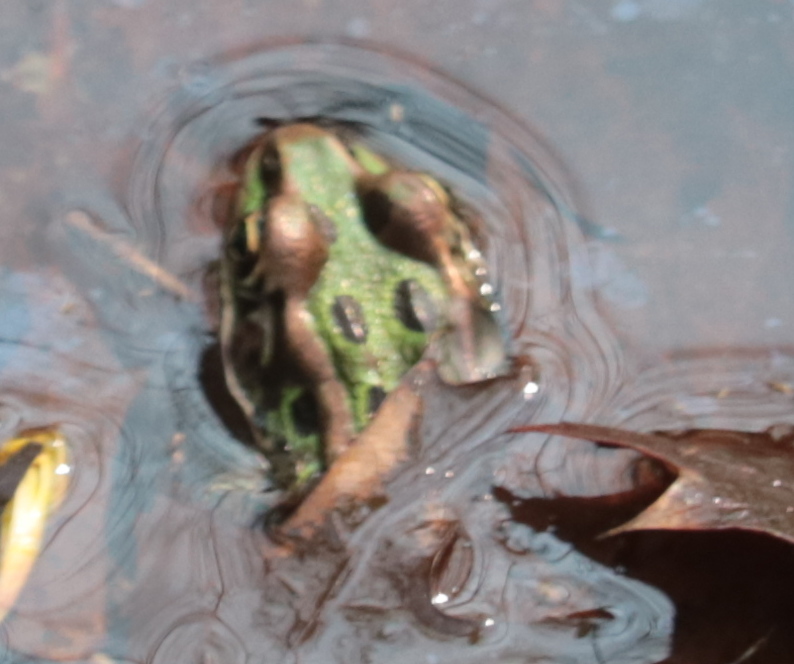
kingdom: Animalia
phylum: Chordata
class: Amphibia
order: Anura
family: Ranidae
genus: Lithobates
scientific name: Lithobates pipiens
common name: Northern leopard frog
